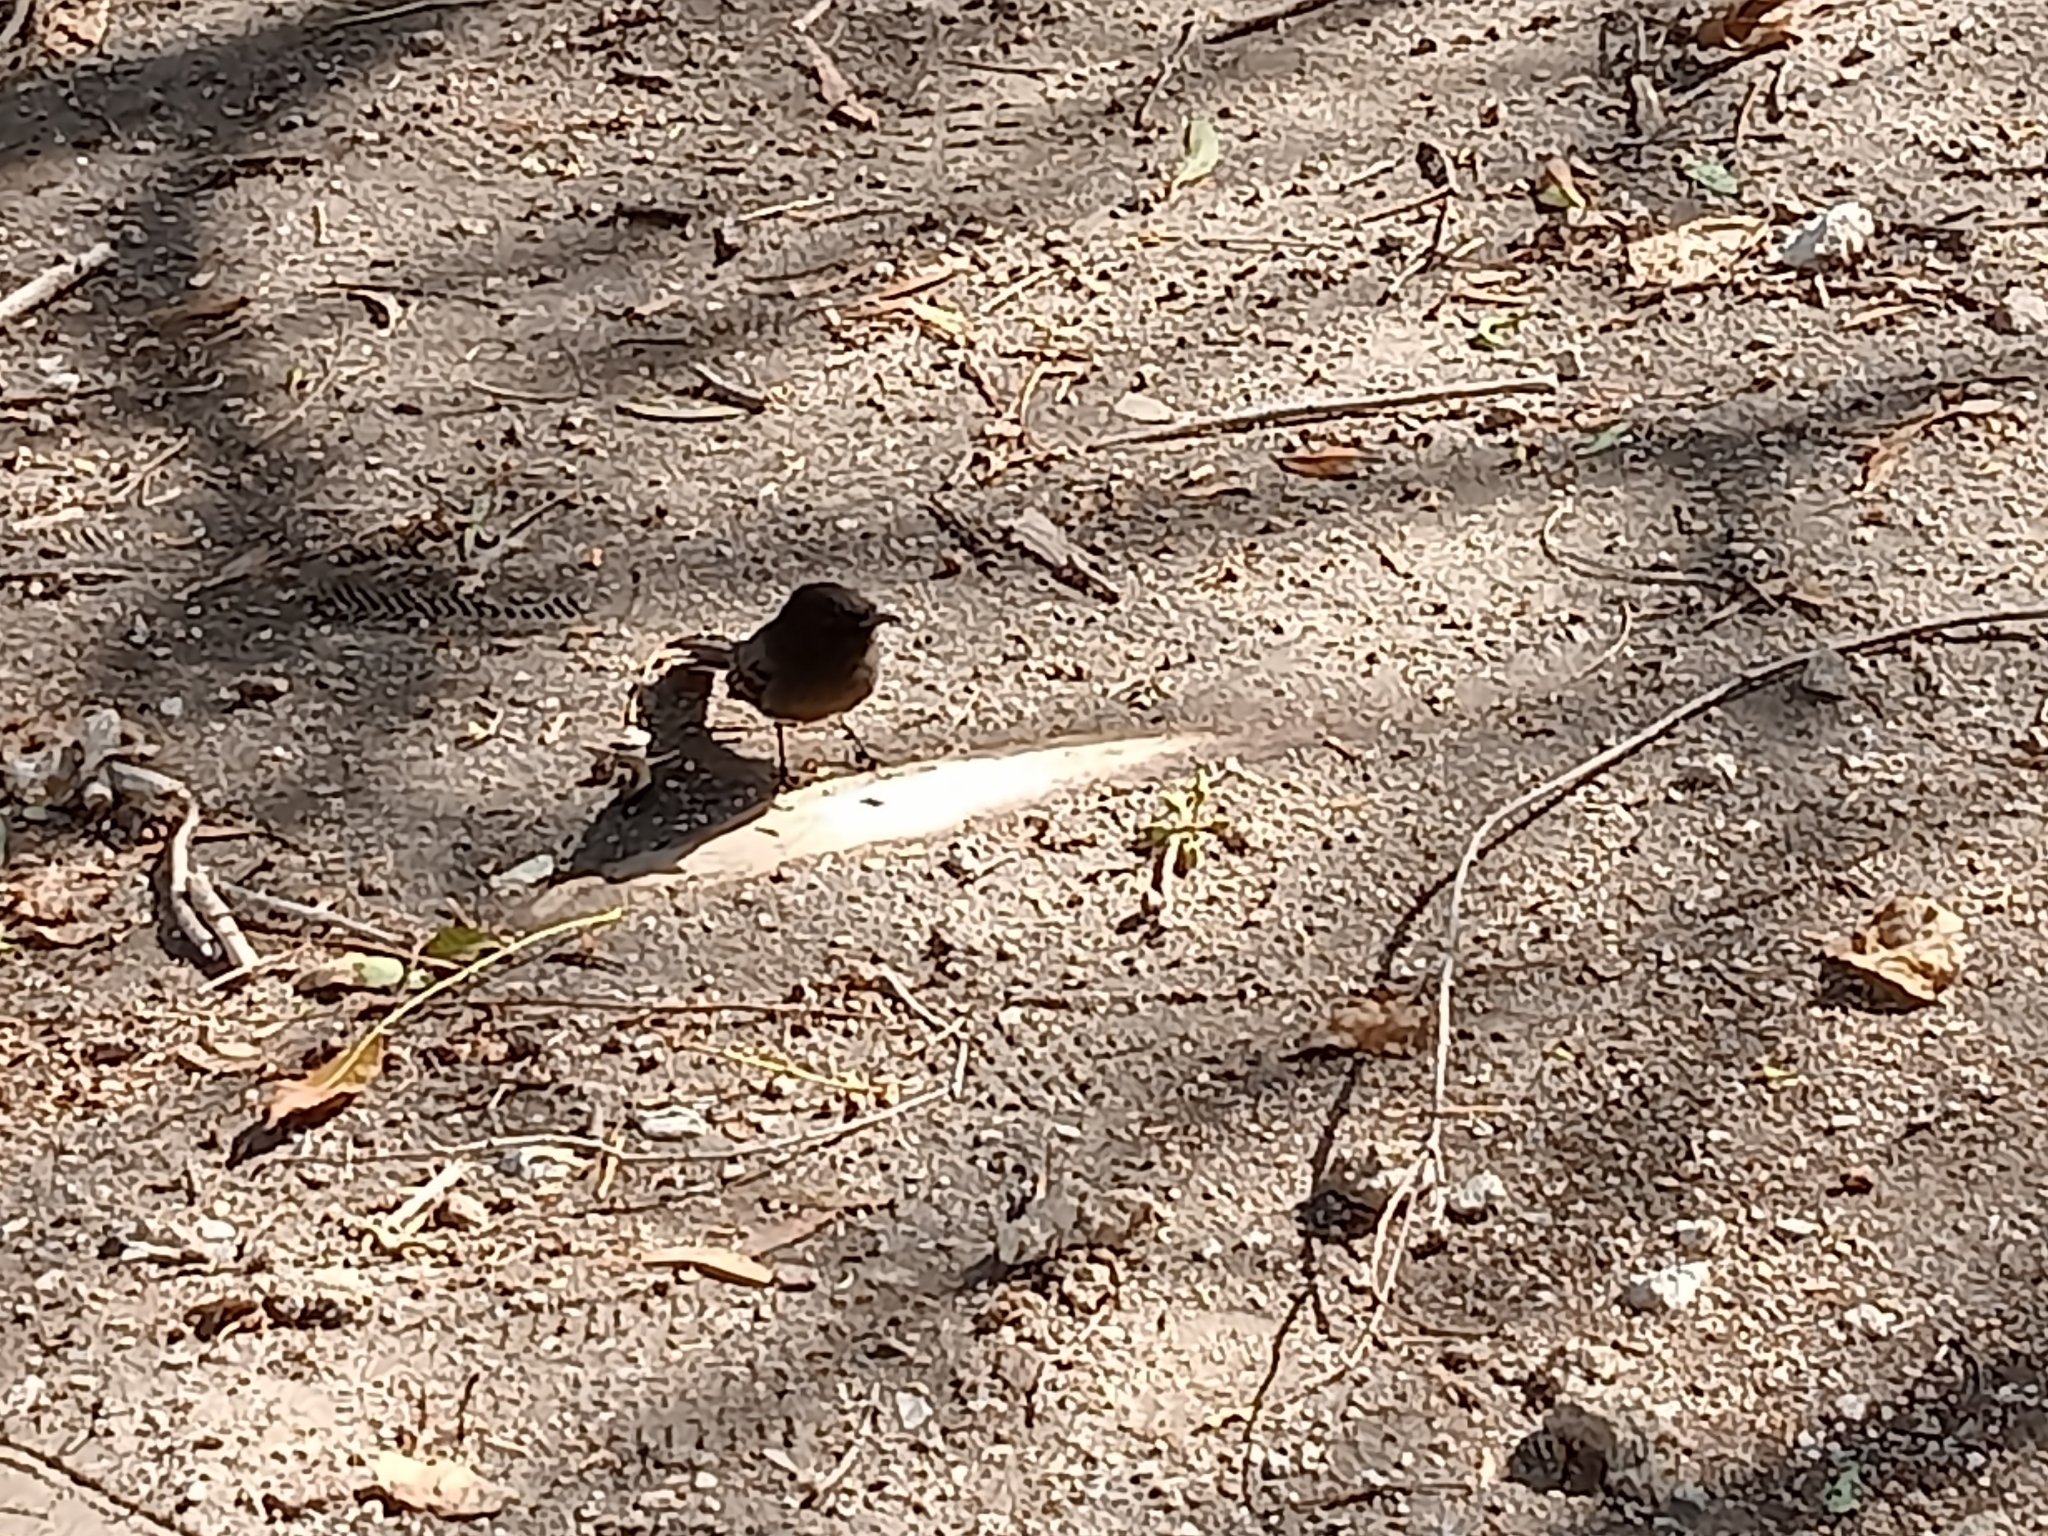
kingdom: Animalia
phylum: Chordata
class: Aves
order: Passeriformes
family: Tyrannidae
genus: Sayornis
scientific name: Sayornis nigricans
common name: Black phoebe
